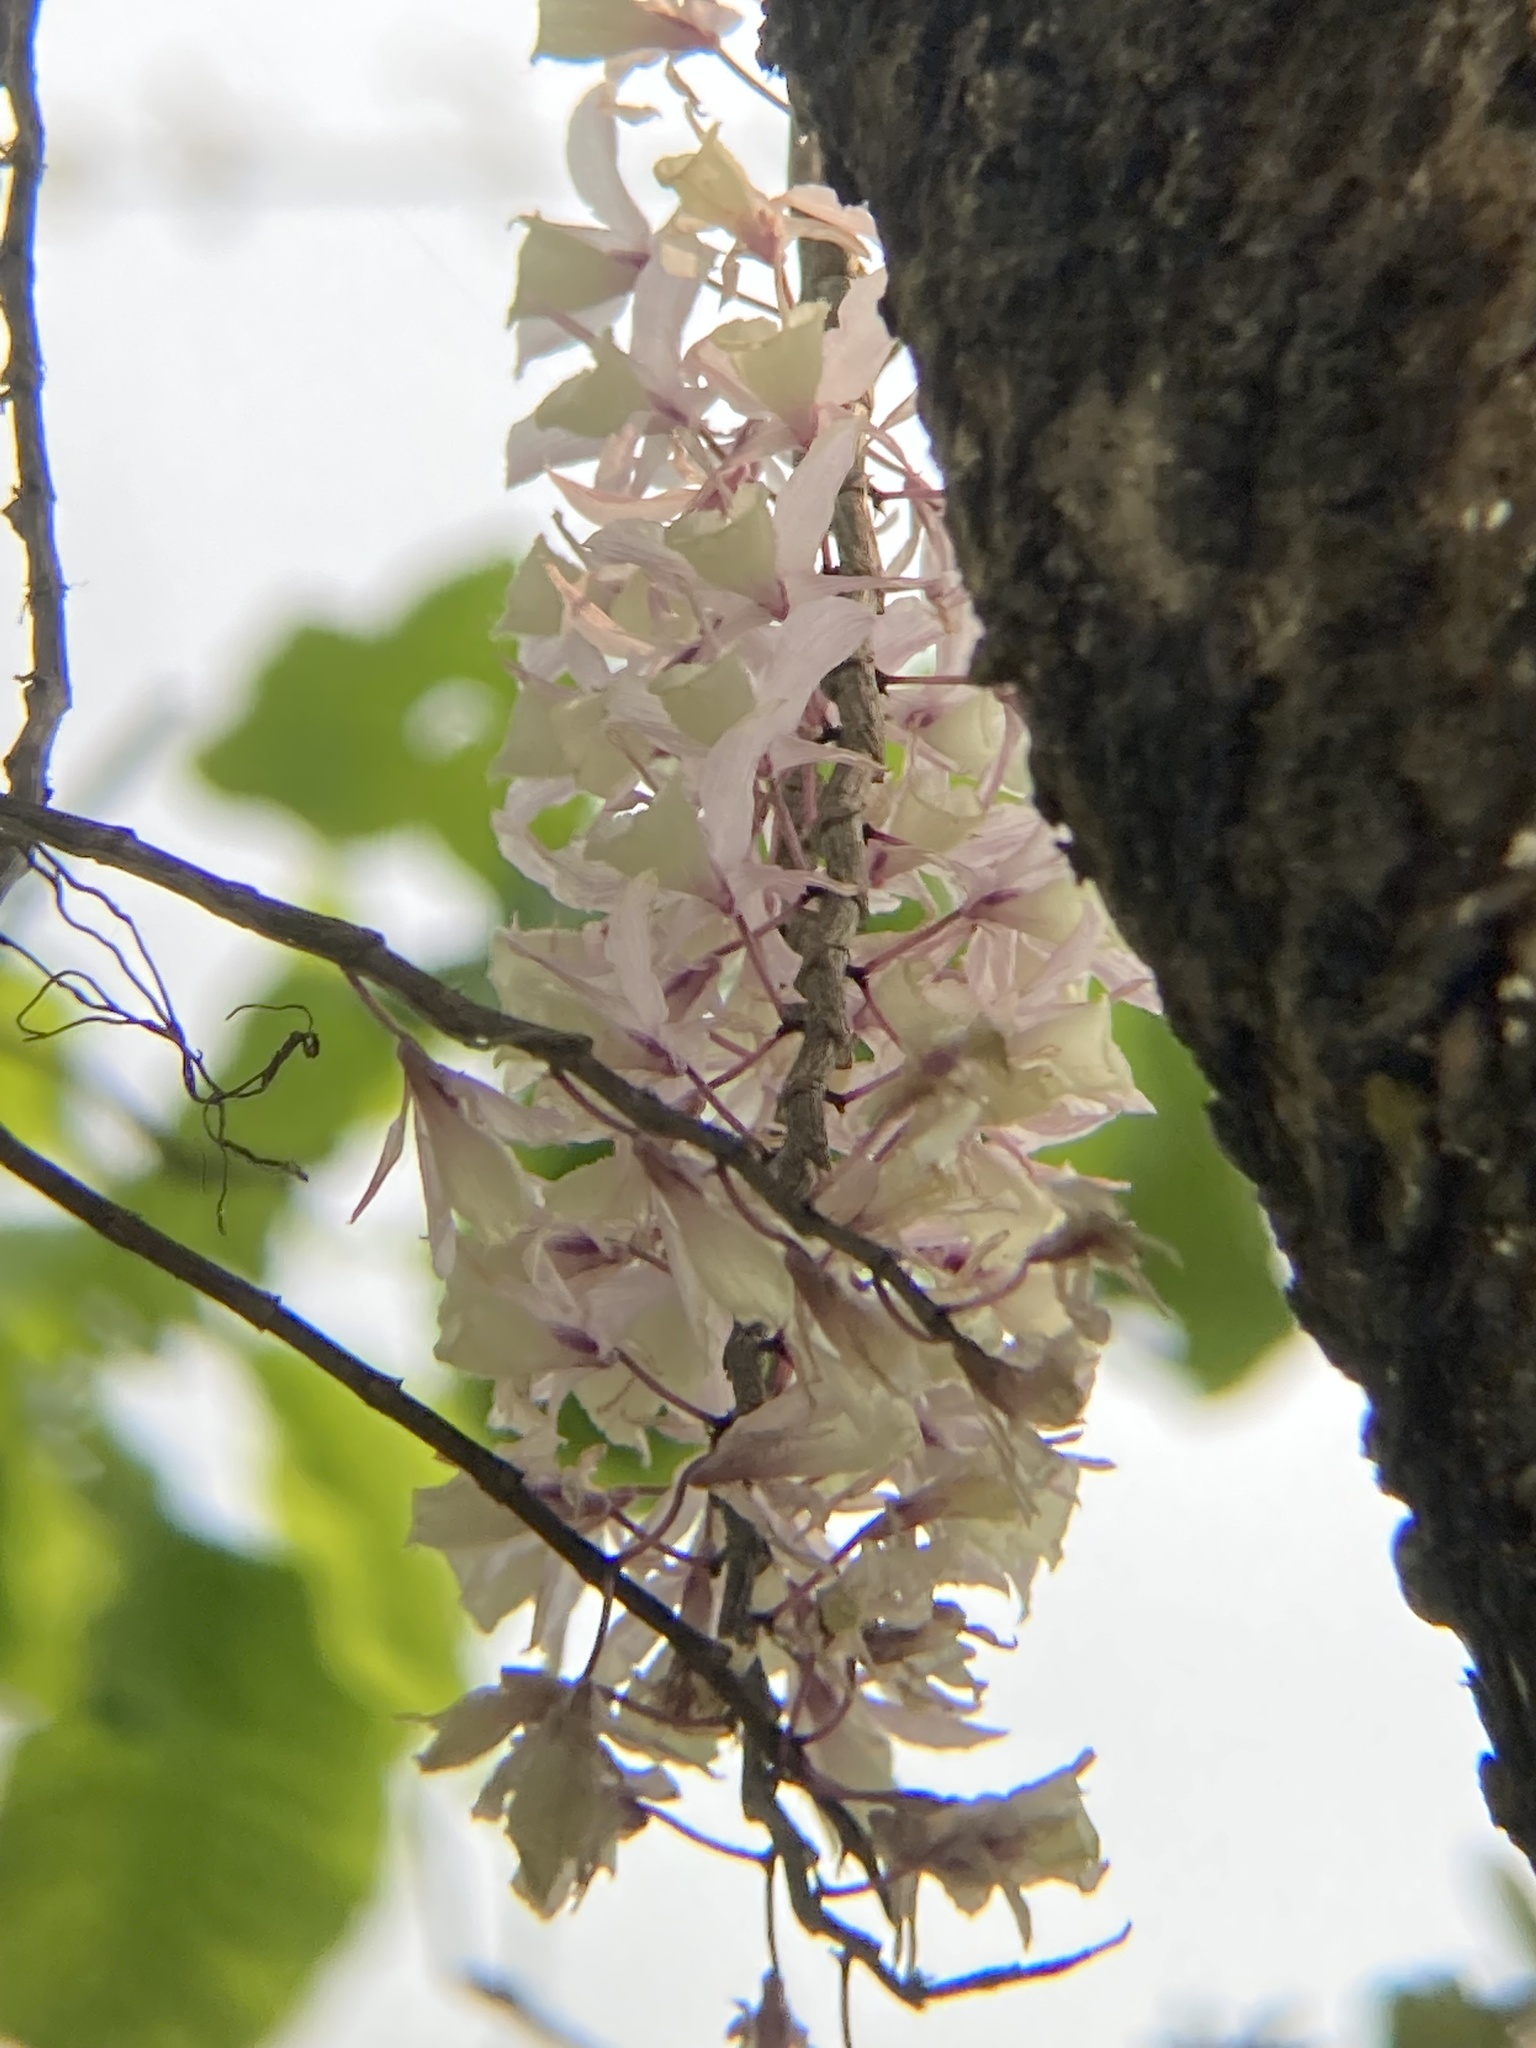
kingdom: Plantae
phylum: Tracheophyta
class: Liliopsida
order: Asparagales
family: Orchidaceae
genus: Dendrobium
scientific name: Dendrobium aphyllum
